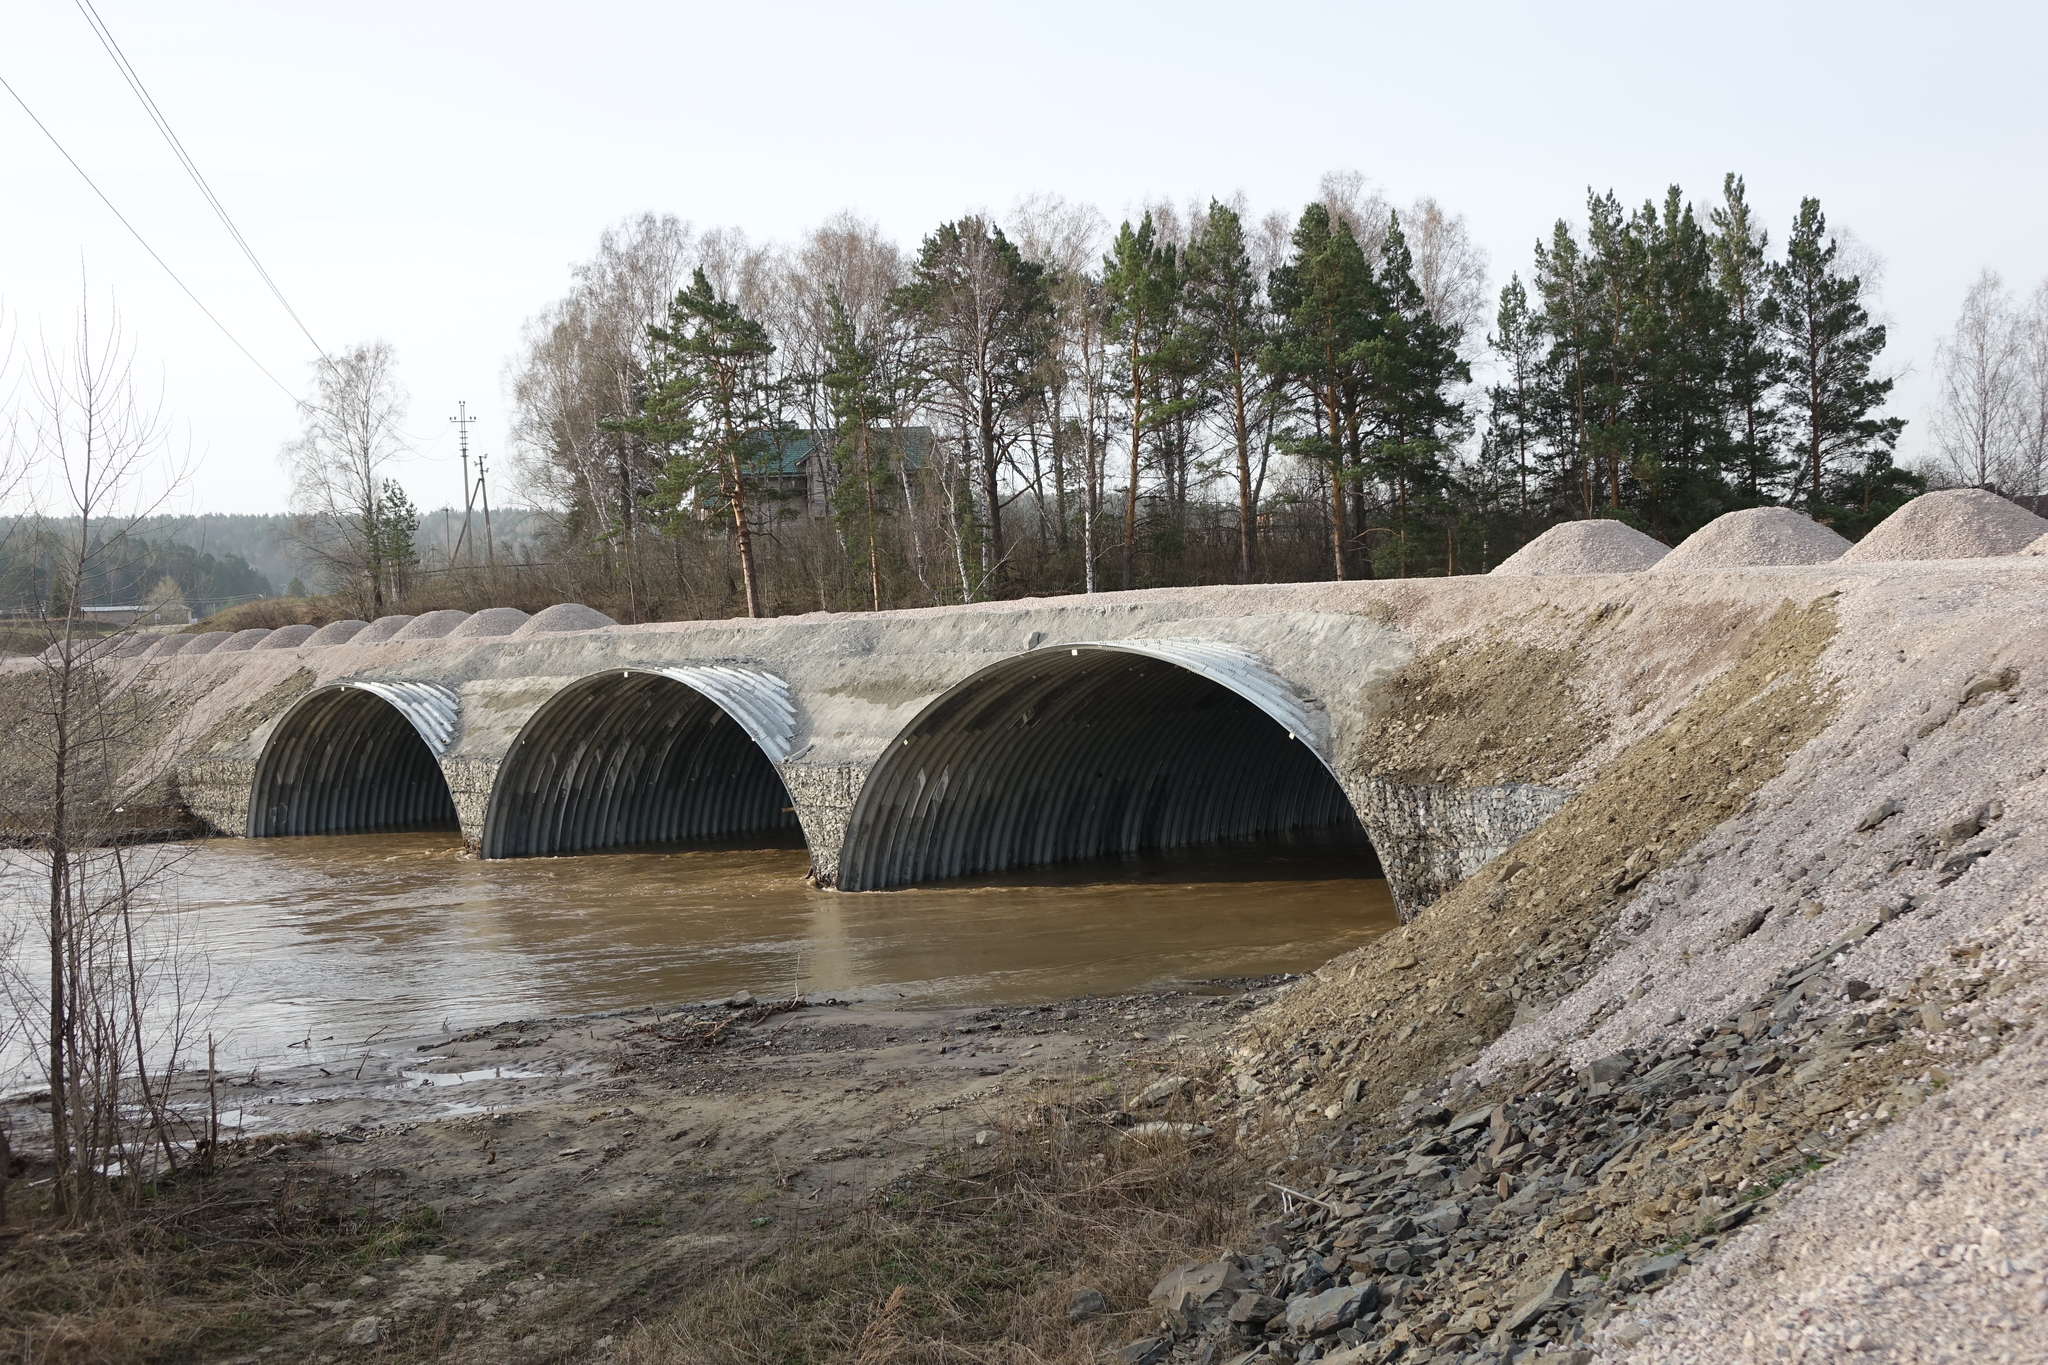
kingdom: Plantae
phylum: Tracheophyta
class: Pinopsida
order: Pinales
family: Pinaceae
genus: Pinus
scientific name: Pinus sylvestris
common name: Scots pine
